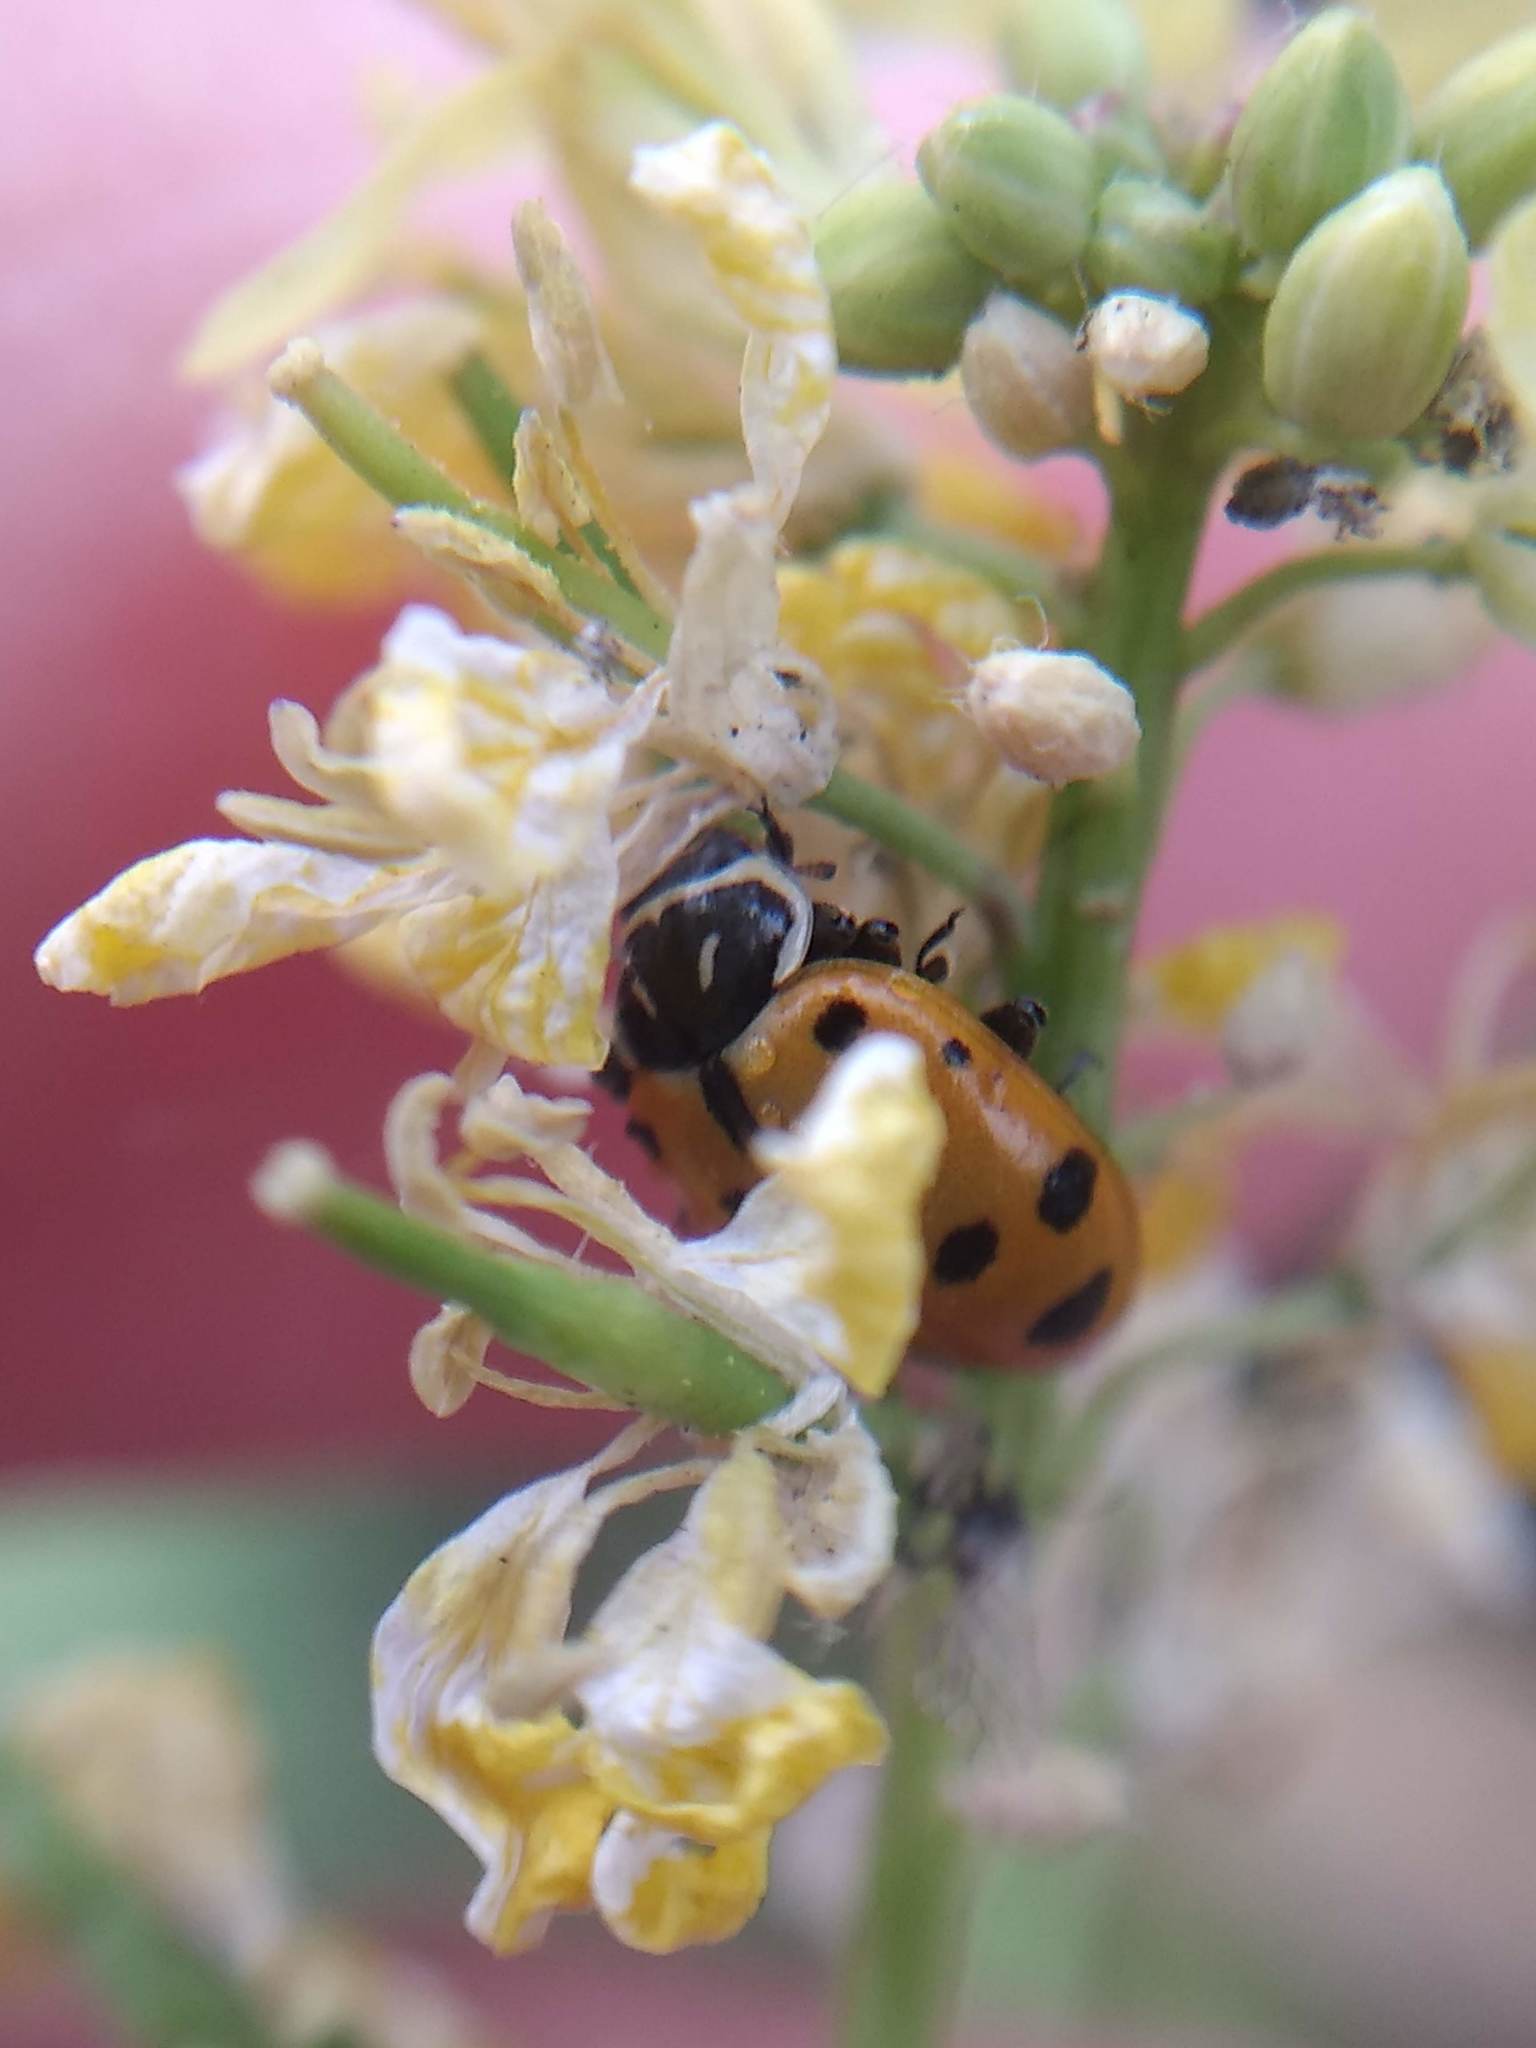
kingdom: Animalia
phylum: Arthropoda
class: Insecta
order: Coleoptera
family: Coccinellidae
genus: Hippodamia
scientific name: Hippodamia convergens
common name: Convergent lady beetle
